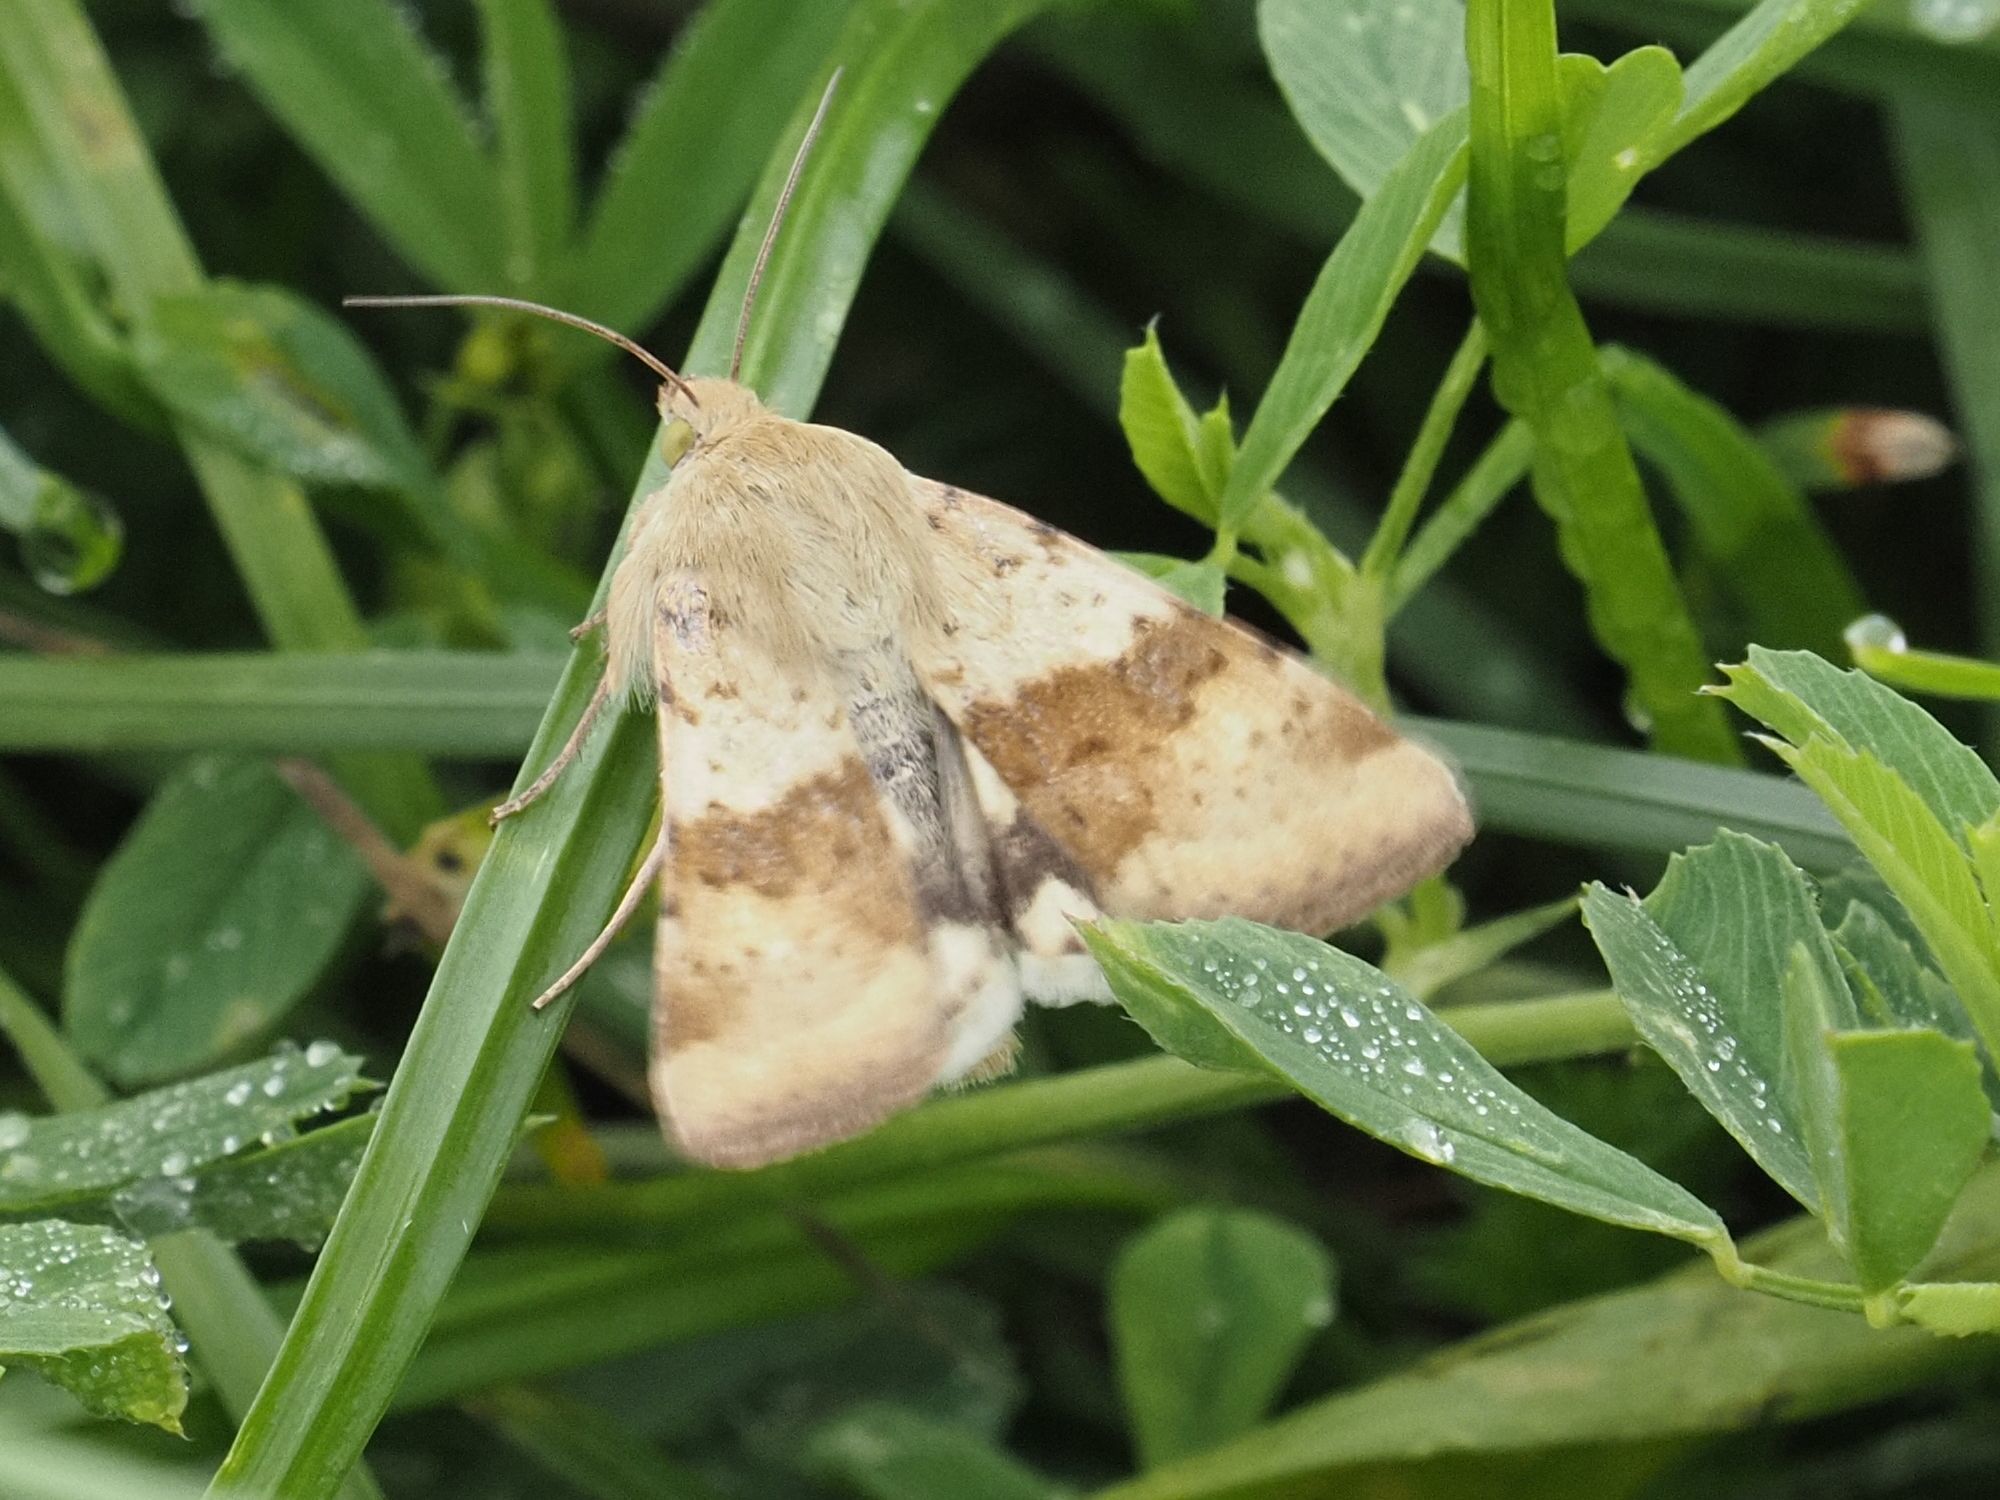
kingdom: Animalia
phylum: Arthropoda
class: Insecta
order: Lepidoptera
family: Noctuidae
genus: Heliothis
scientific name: Heliothis viriplaca
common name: Marbled clover
